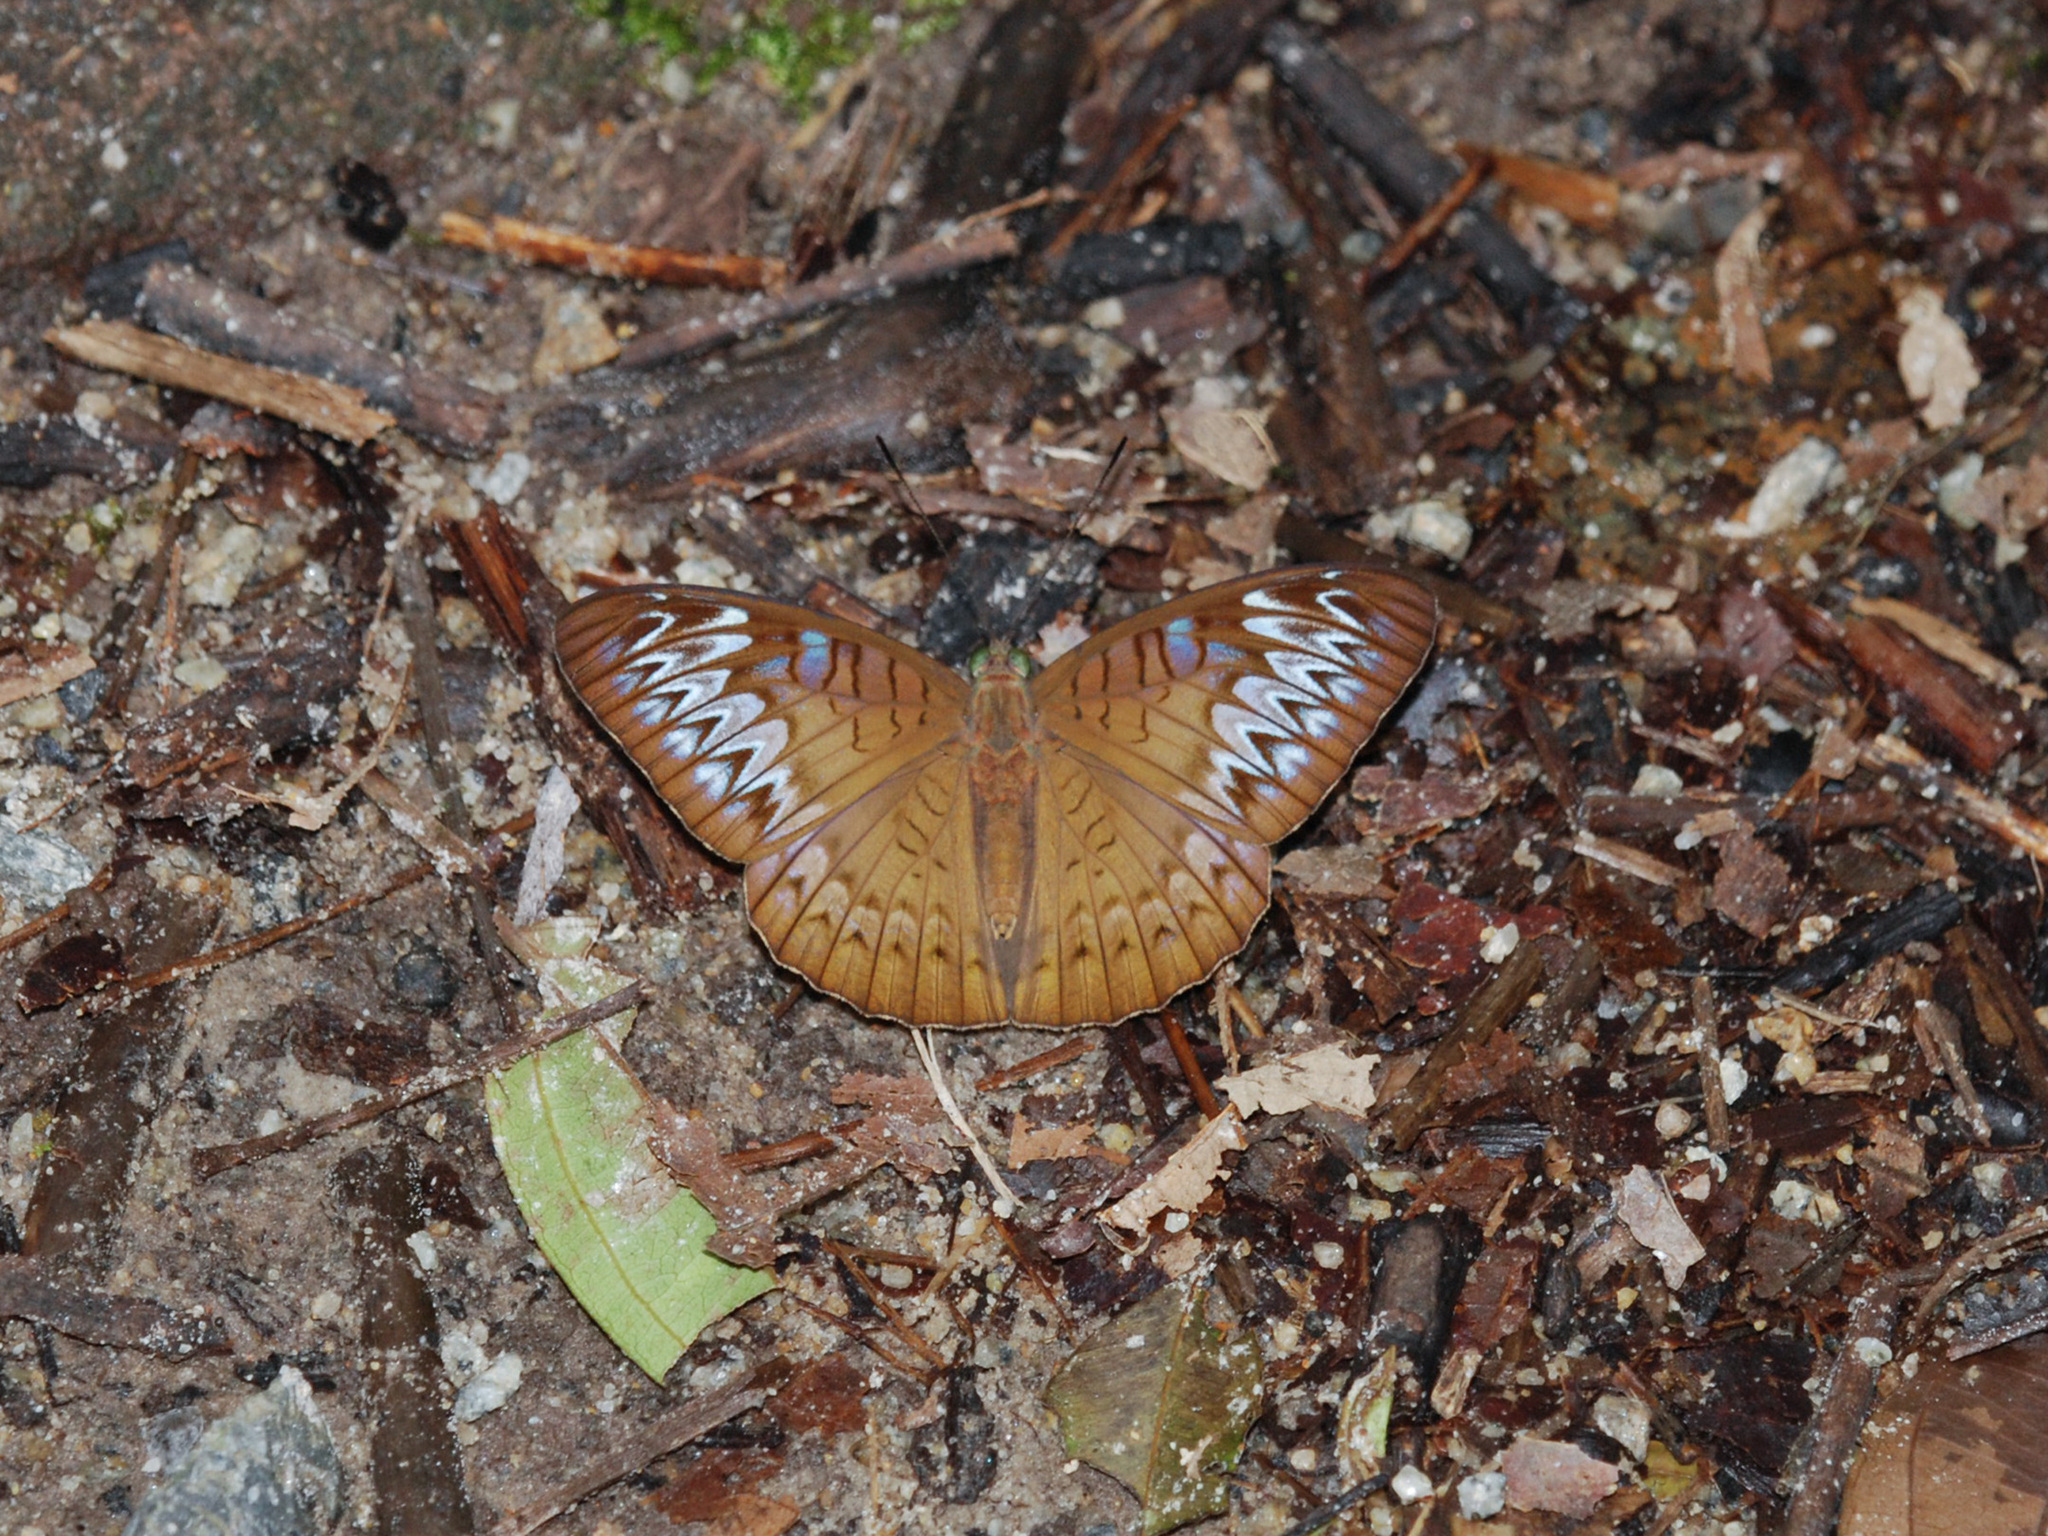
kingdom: Animalia
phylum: Arthropoda
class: Insecta
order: Lepidoptera
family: Nymphalidae
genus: Tanaecia
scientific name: Tanaecia pelea
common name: Malay viscount
